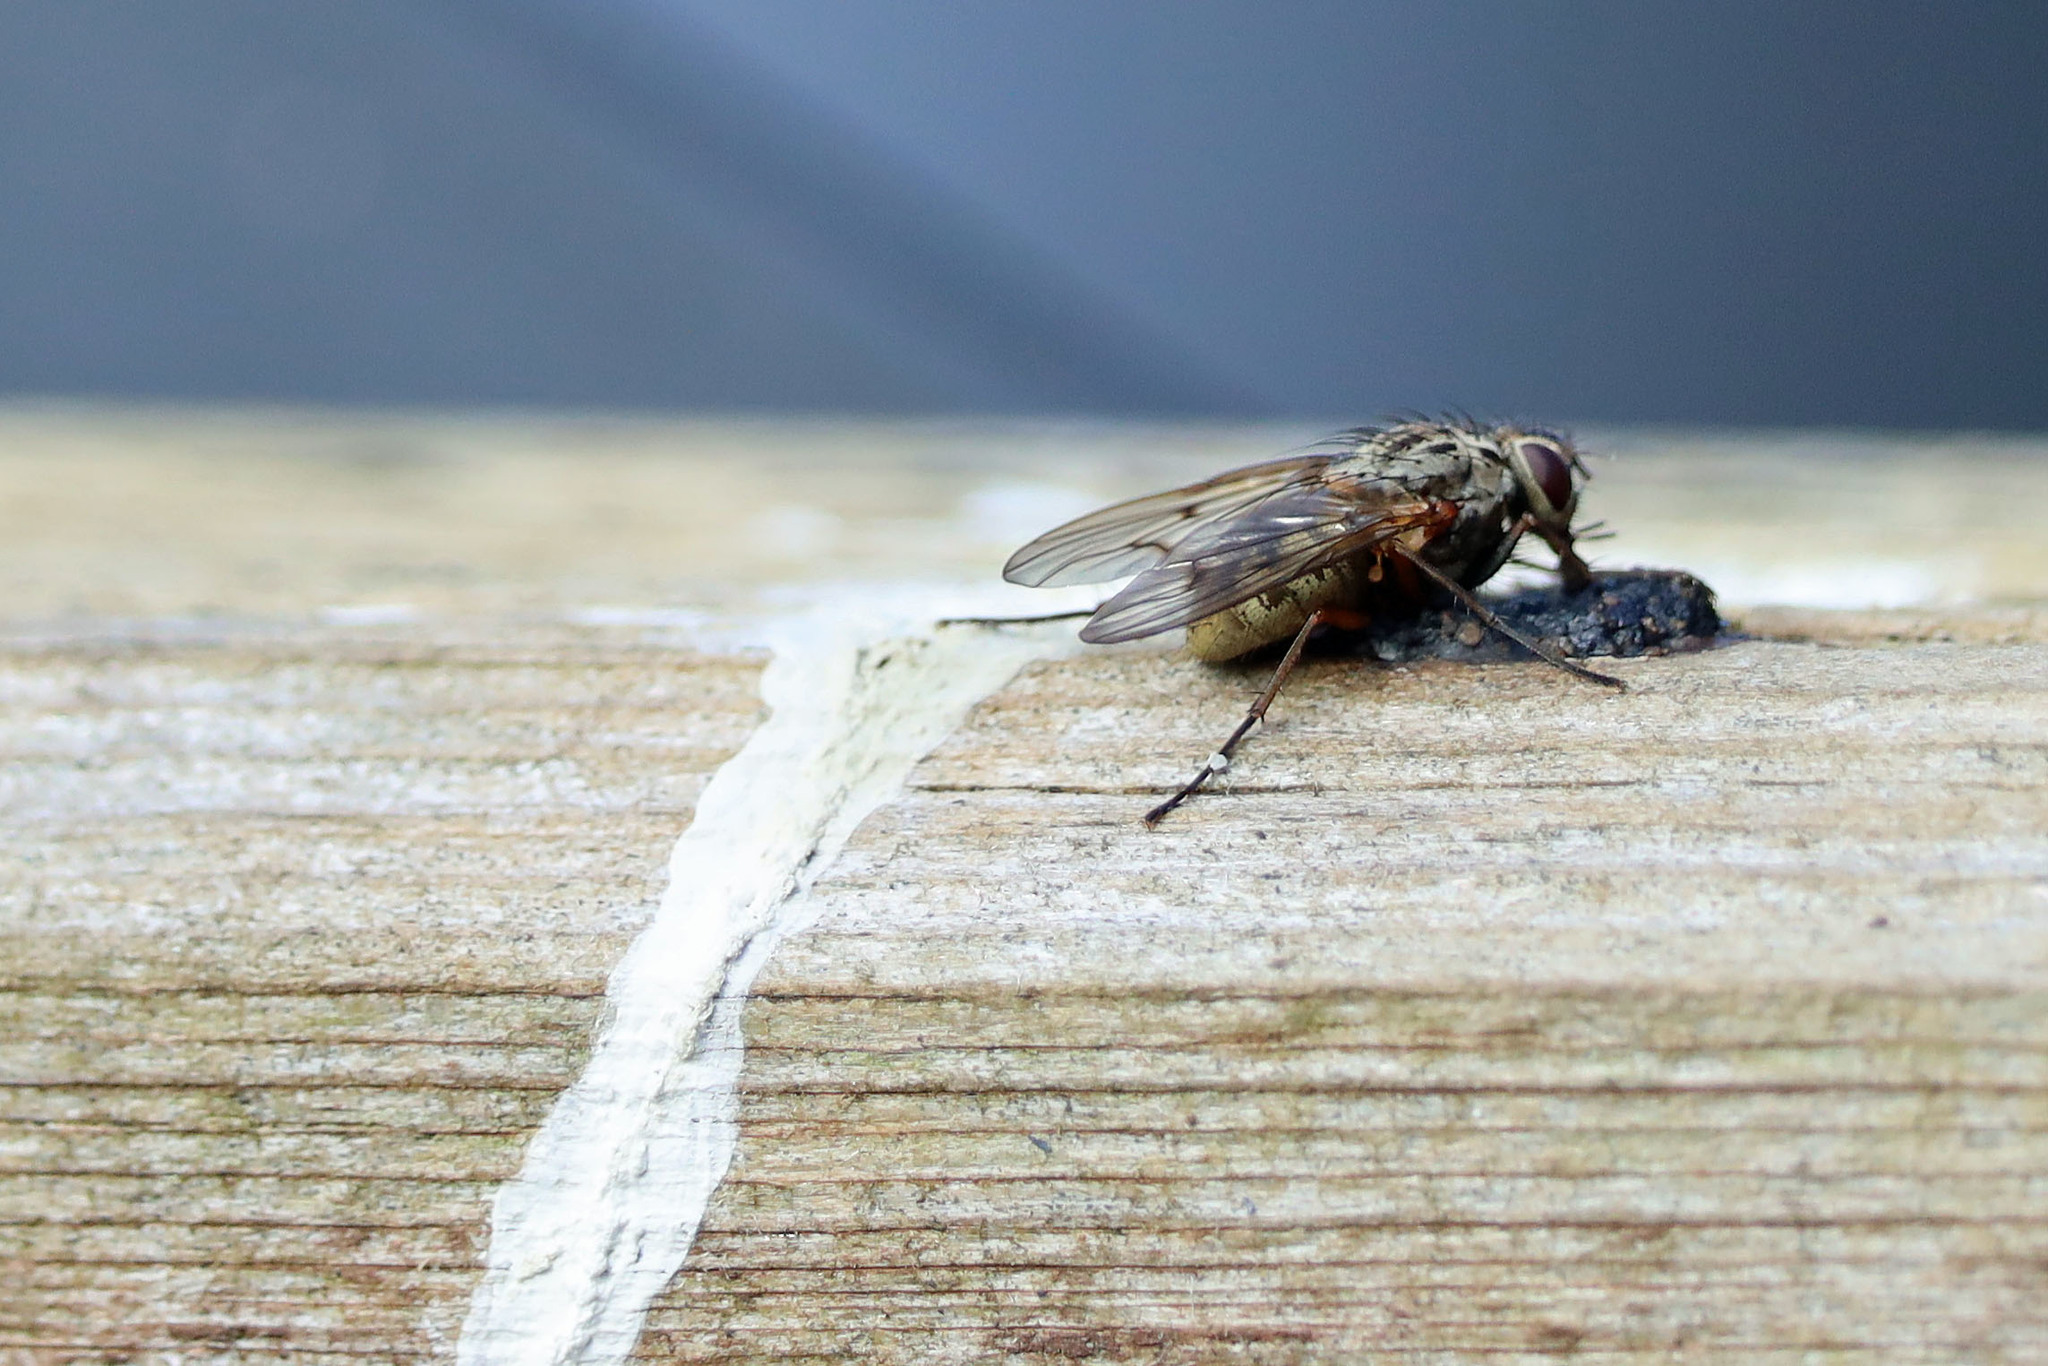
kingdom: Animalia
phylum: Arthropoda
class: Insecta
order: Diptera
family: Muscidae
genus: Phaonia
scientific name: Phaonia tuguriorum
